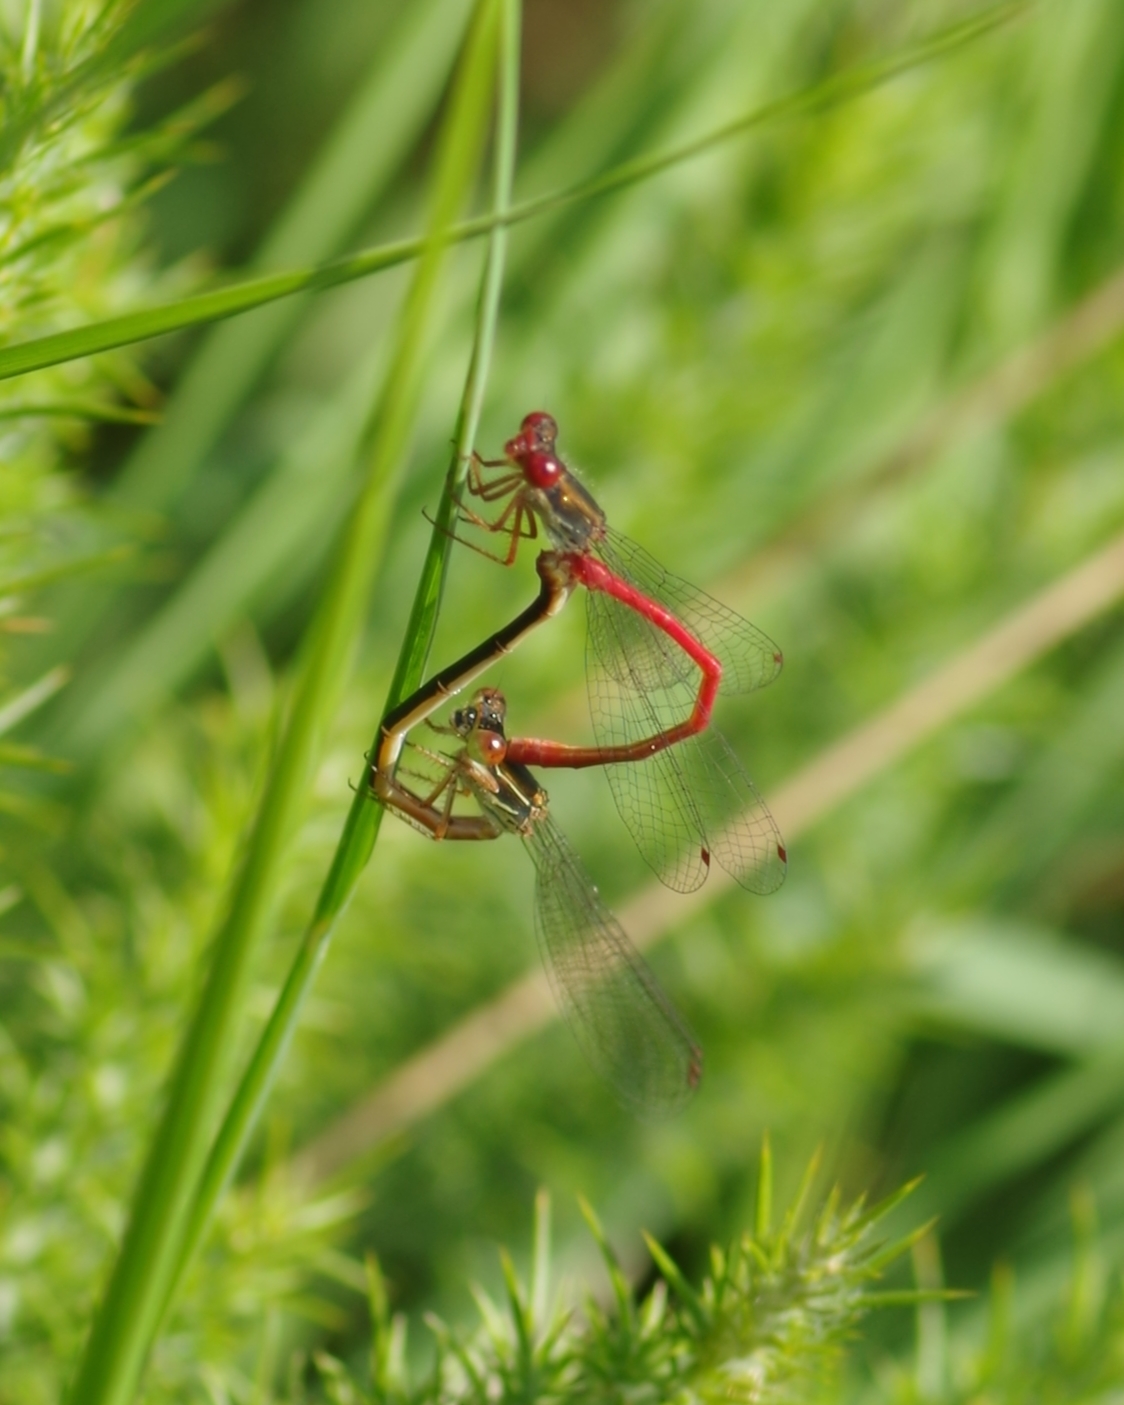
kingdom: Animalia
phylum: Arthropoda
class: Insecta
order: Odonata
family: Coenagrionidae
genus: Ceriagrion
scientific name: Ceriagrion tenellum
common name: Small red damselfly
